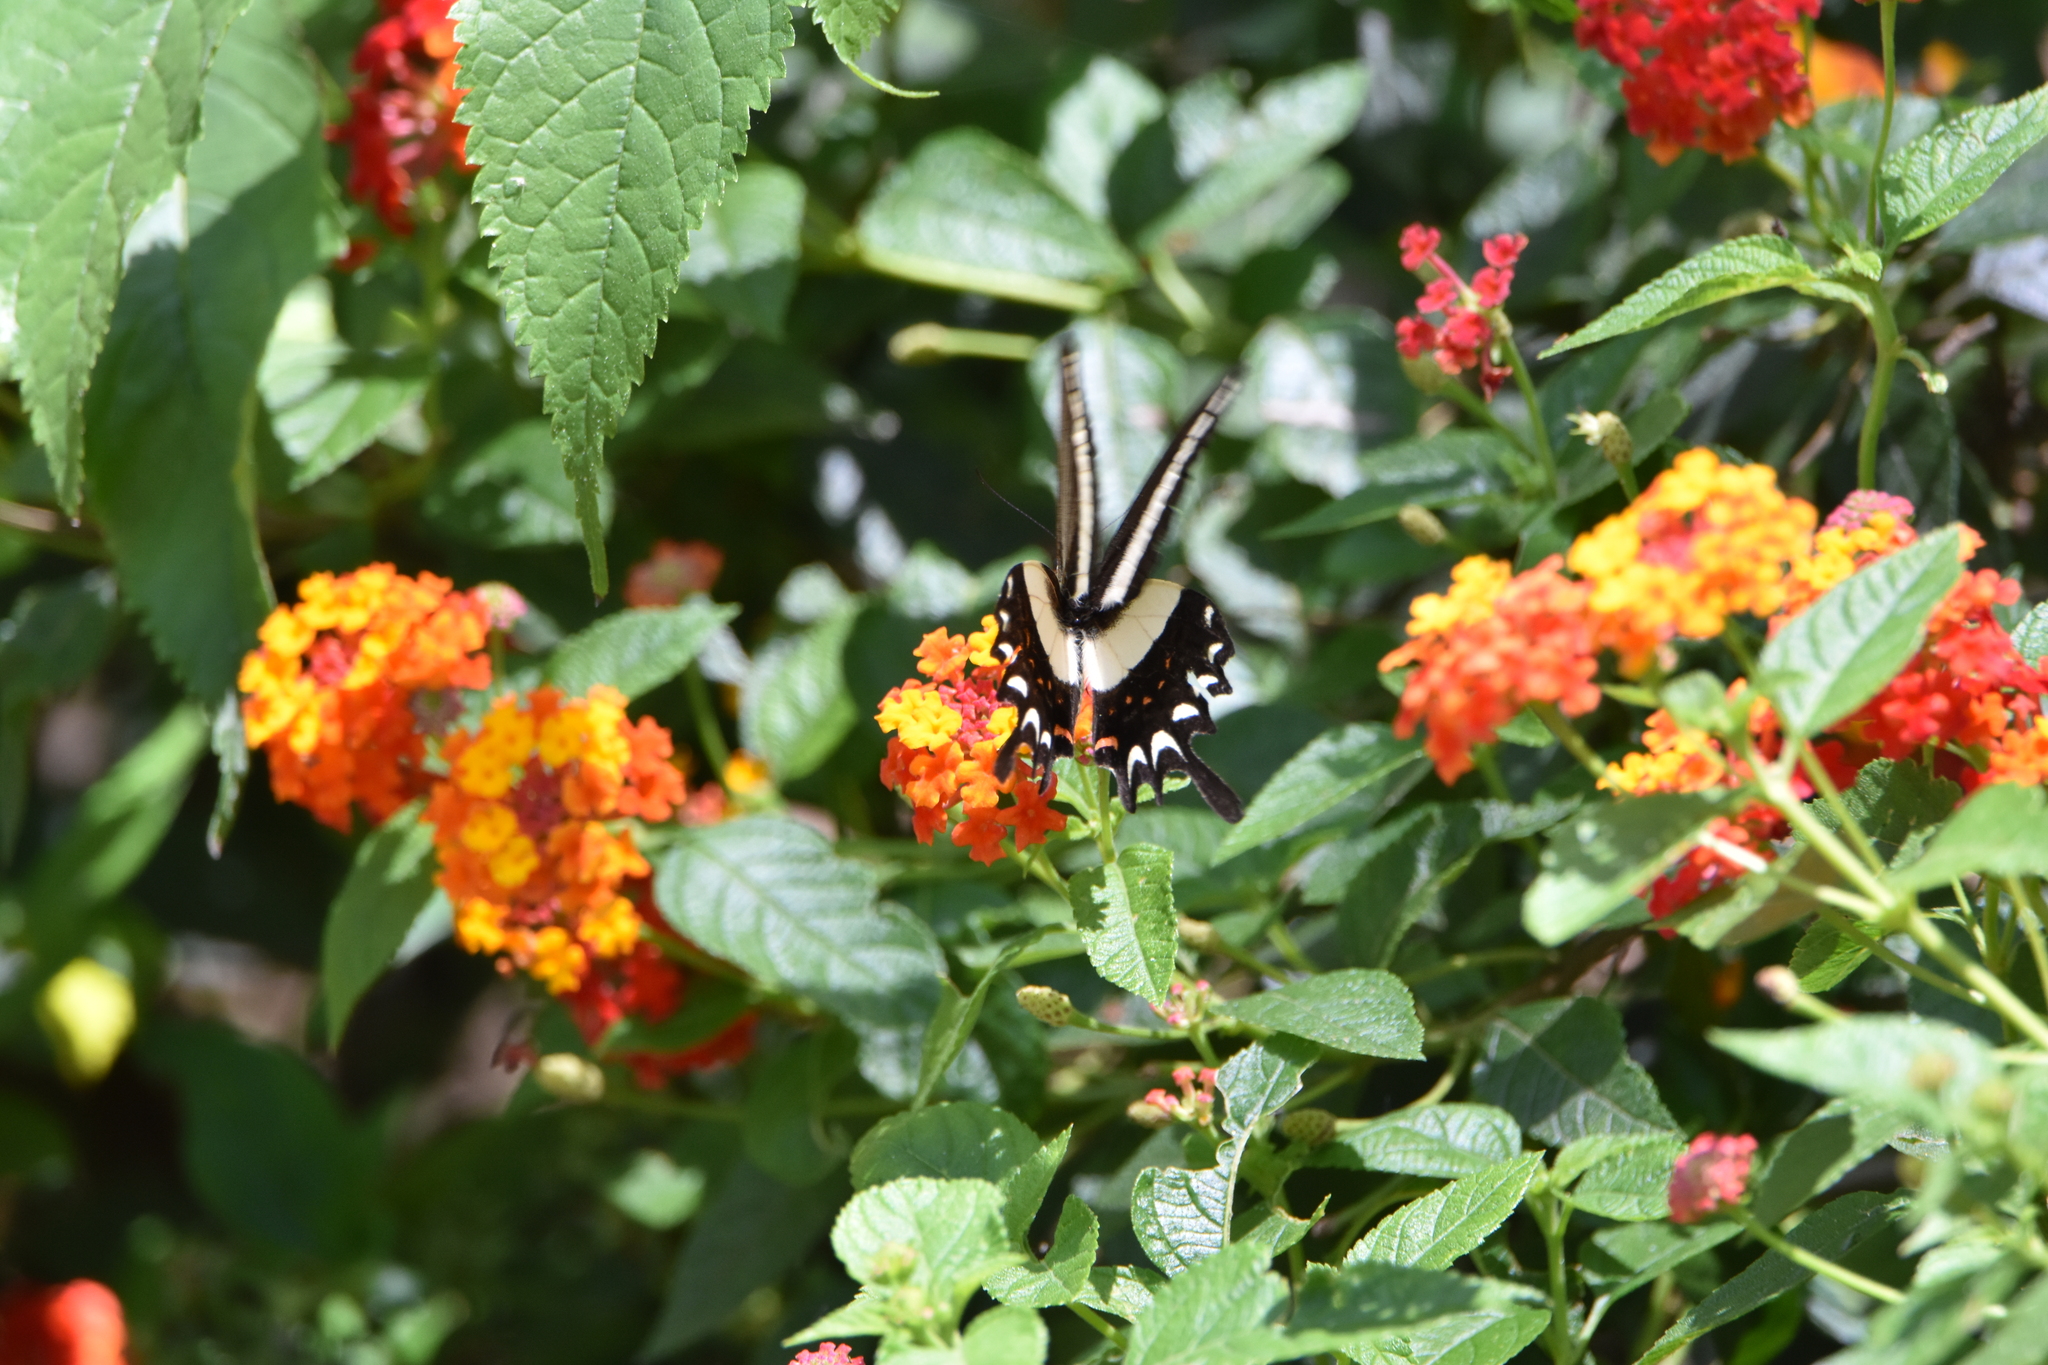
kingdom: Animalia
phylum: Arthropoda
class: Insecta
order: Lepidoptera
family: Papilionidae
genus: Heraclides
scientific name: Heraclides hectorides
